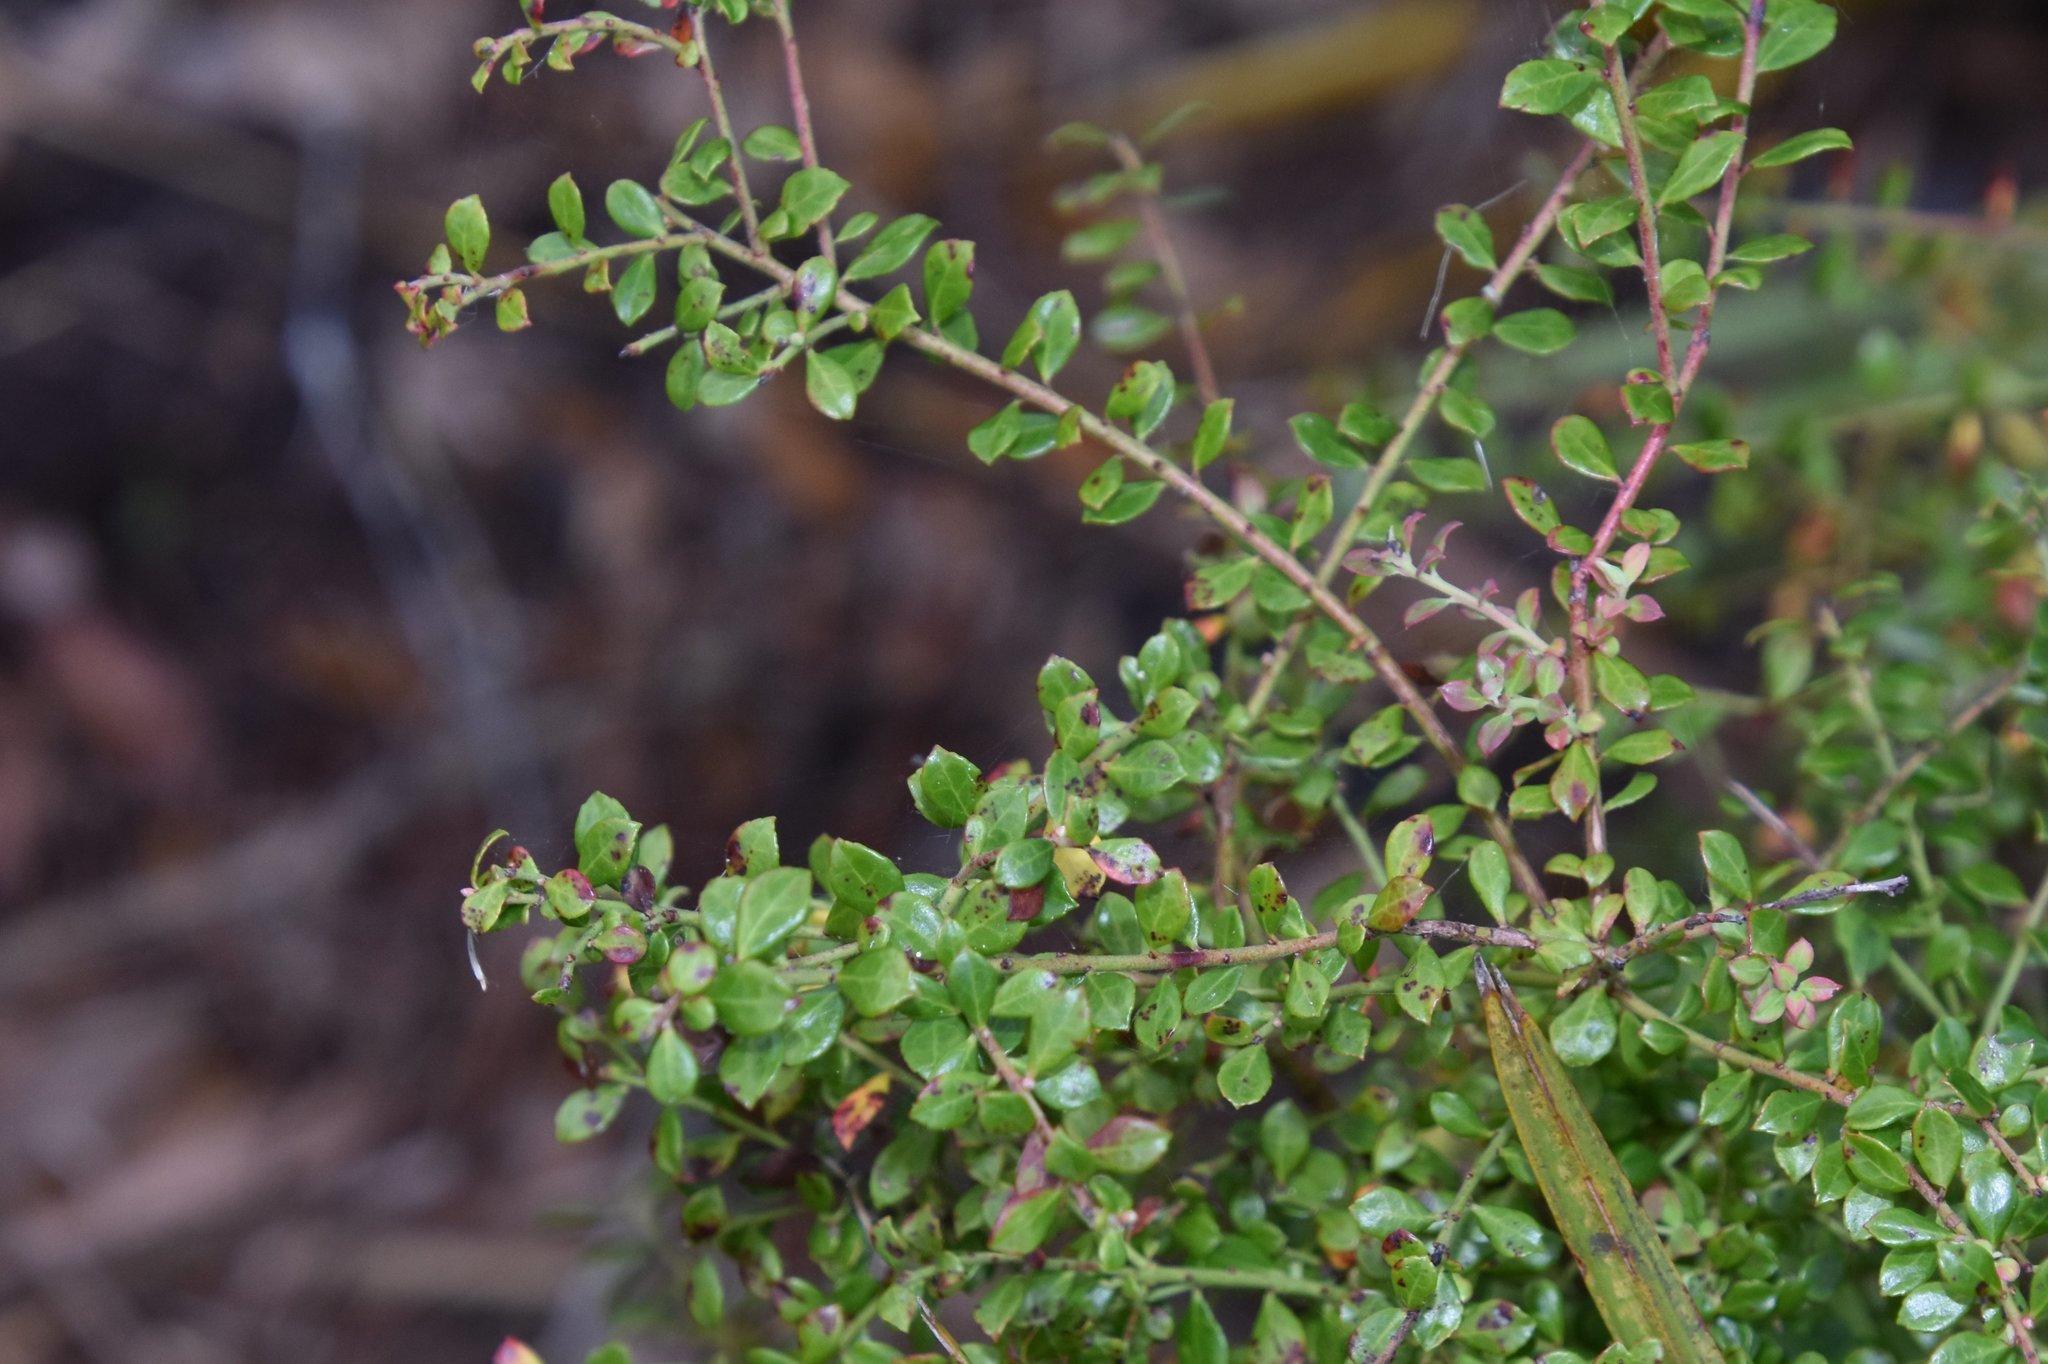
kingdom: Plantae
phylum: Tracheophyta
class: Magnoliopsida
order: Ericales
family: Ericaceae
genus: Vaccinium
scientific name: Vaccinium darrowii
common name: Darrow's blueberry
